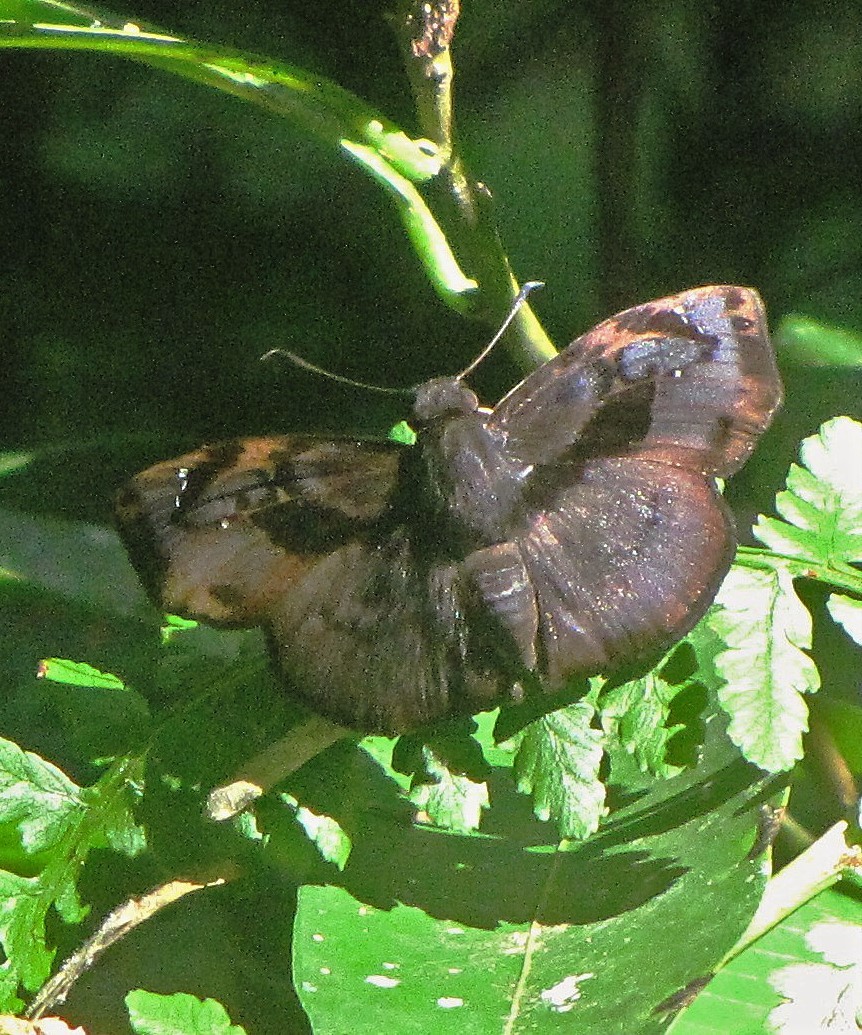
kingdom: Animalia
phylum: Arthropoda
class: Insecta
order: Lepidoptera
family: Hesperiidae
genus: Zera
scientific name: Zera hyacinthinus
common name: Bruised skipper
